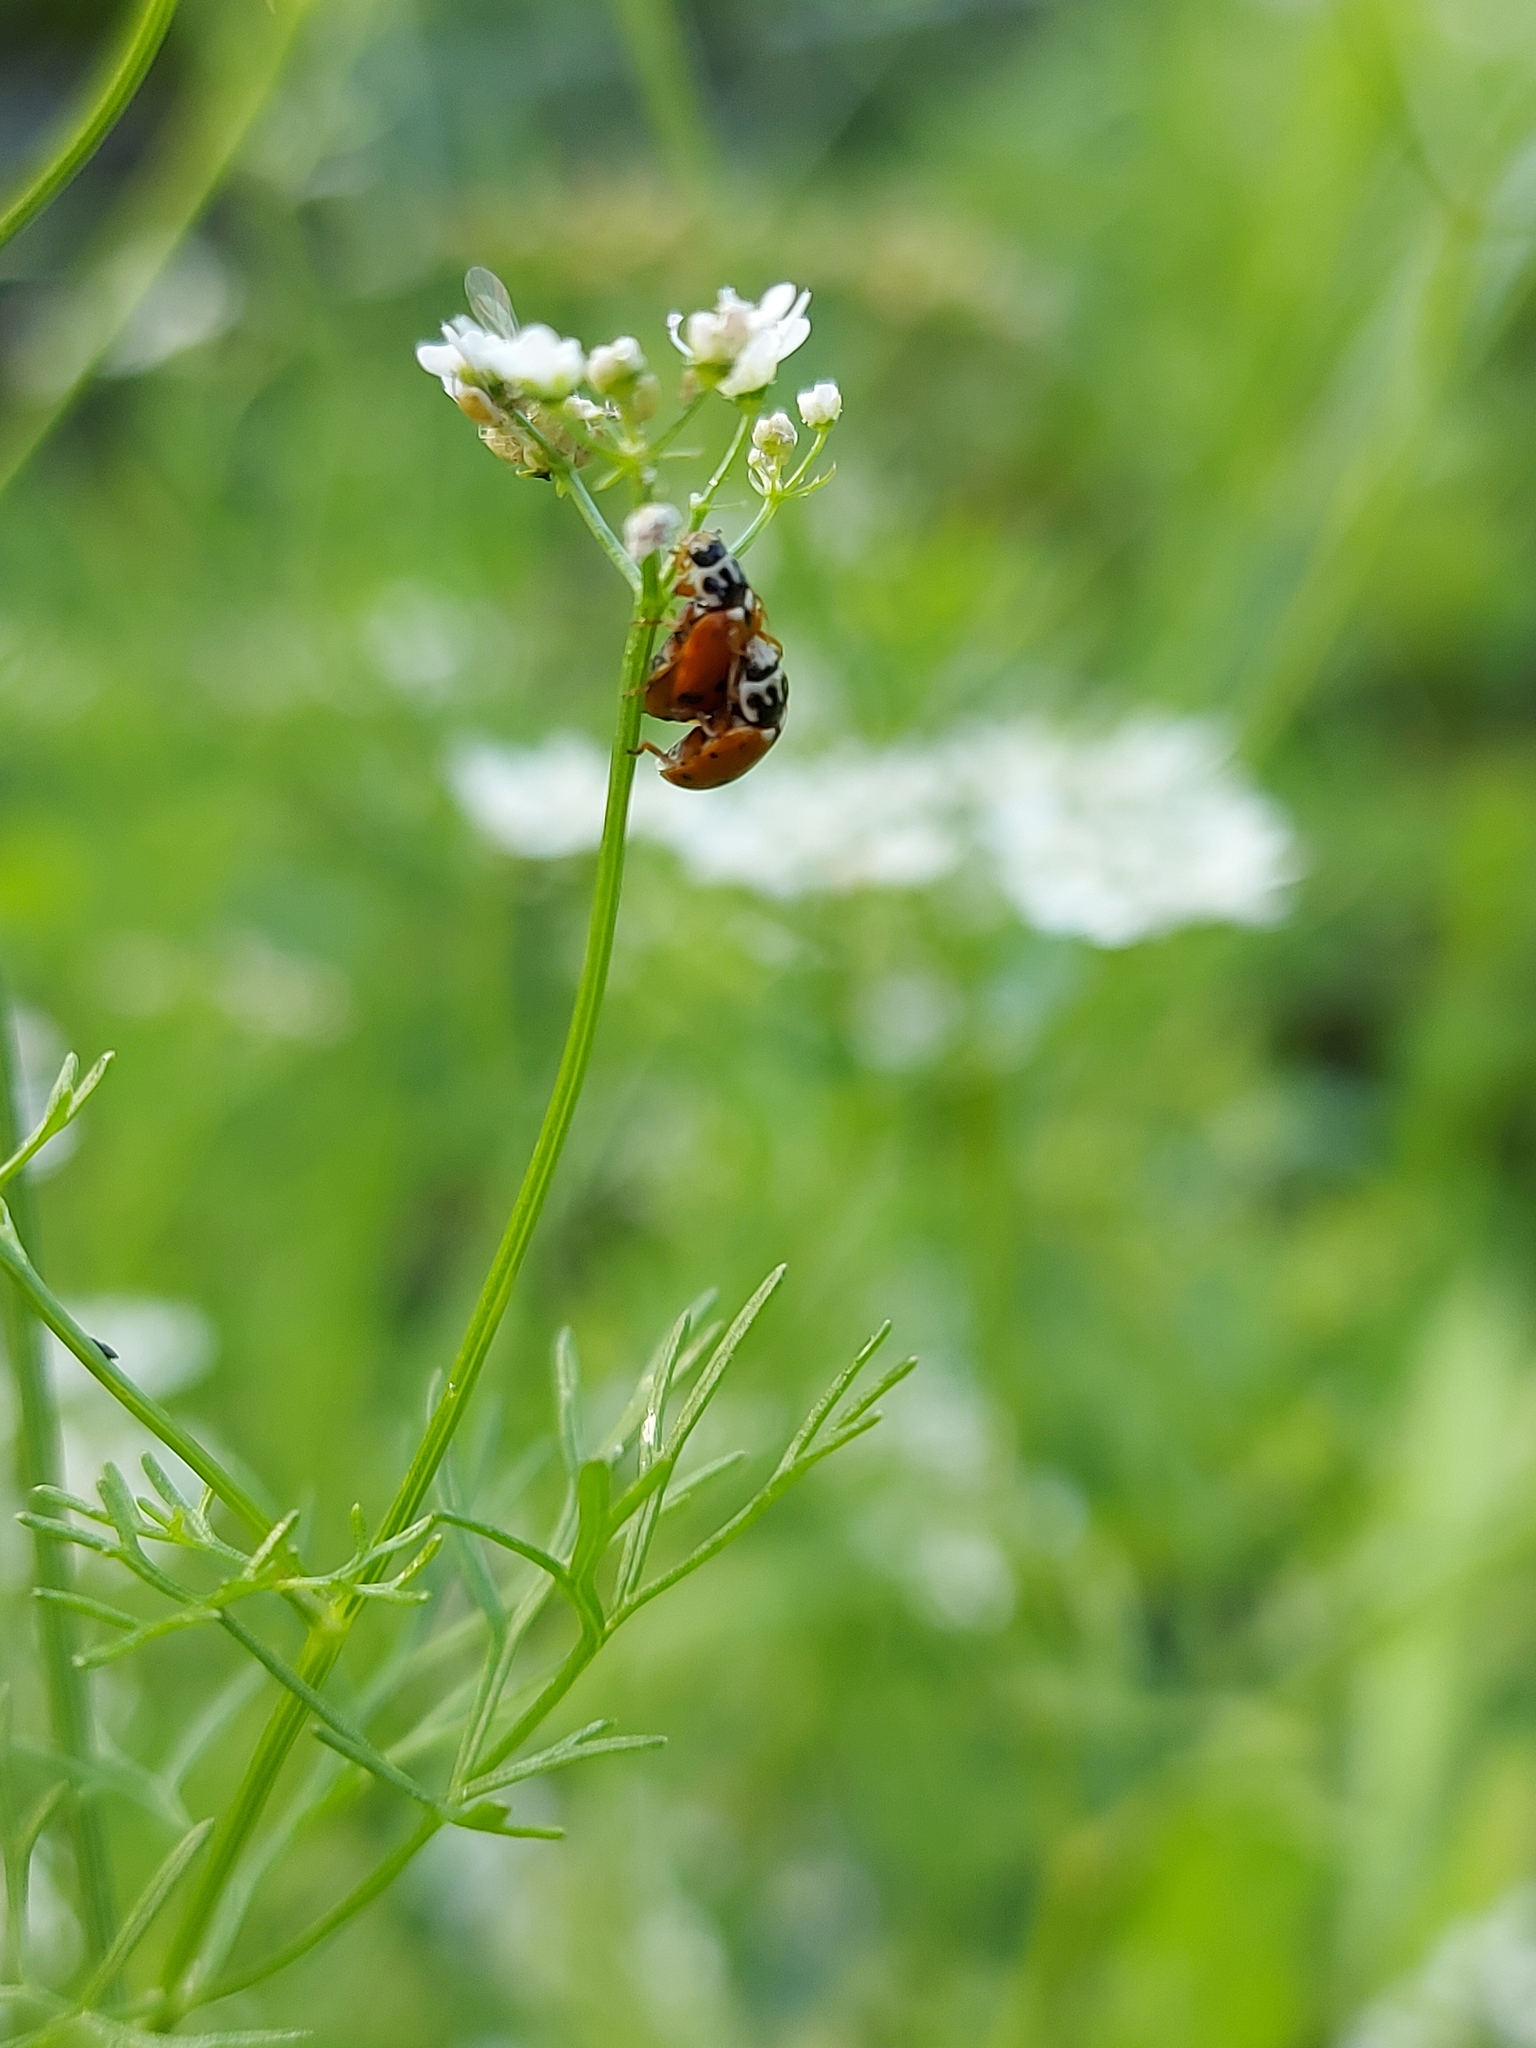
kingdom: Animalia
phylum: Arthropoda
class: Insecta
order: Coleoptera
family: Coccinellidae
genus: Hippodamia
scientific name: Hippodamia variegata
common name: Ladybird beetle
